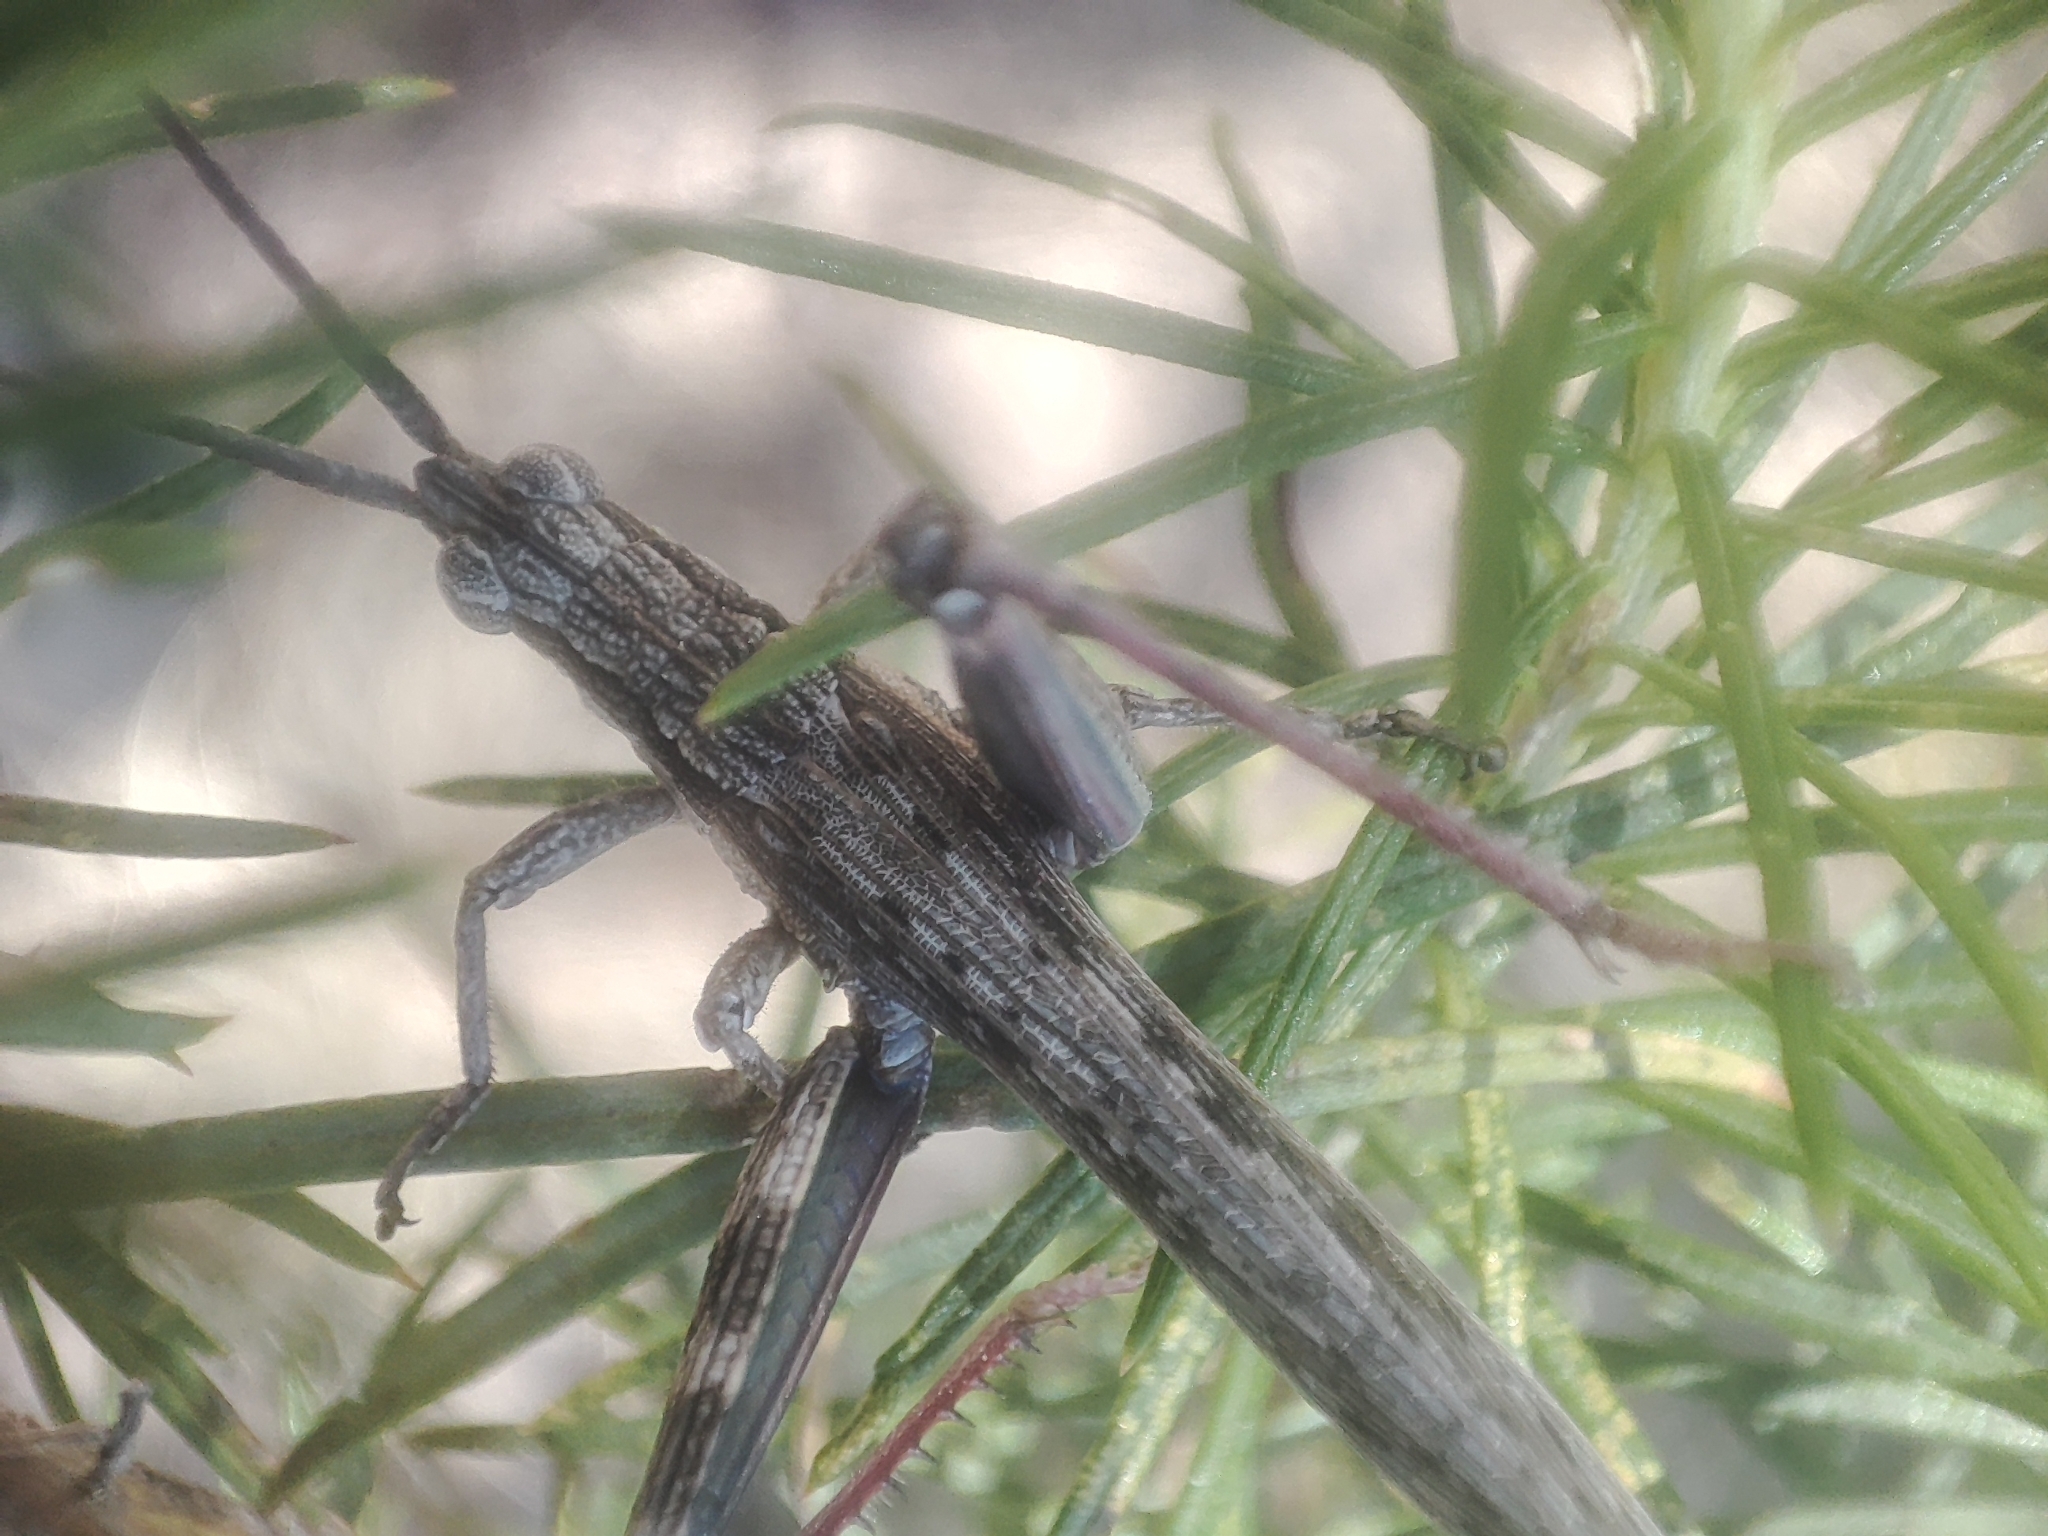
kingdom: Animalia
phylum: Arthropoda
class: Insecta
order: Orthoptera
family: Acrididae
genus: Coryphistes
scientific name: Coryphistes ruricola
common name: Bark-mimicking grasshopper
